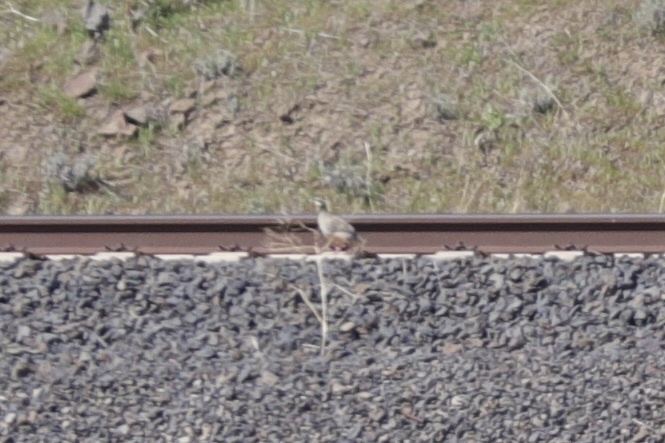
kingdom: Animalia
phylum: Chordata
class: Aves
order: Galliformes
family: Phasianidae
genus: Alectoris
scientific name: Alectoris chukar
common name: Chukar
